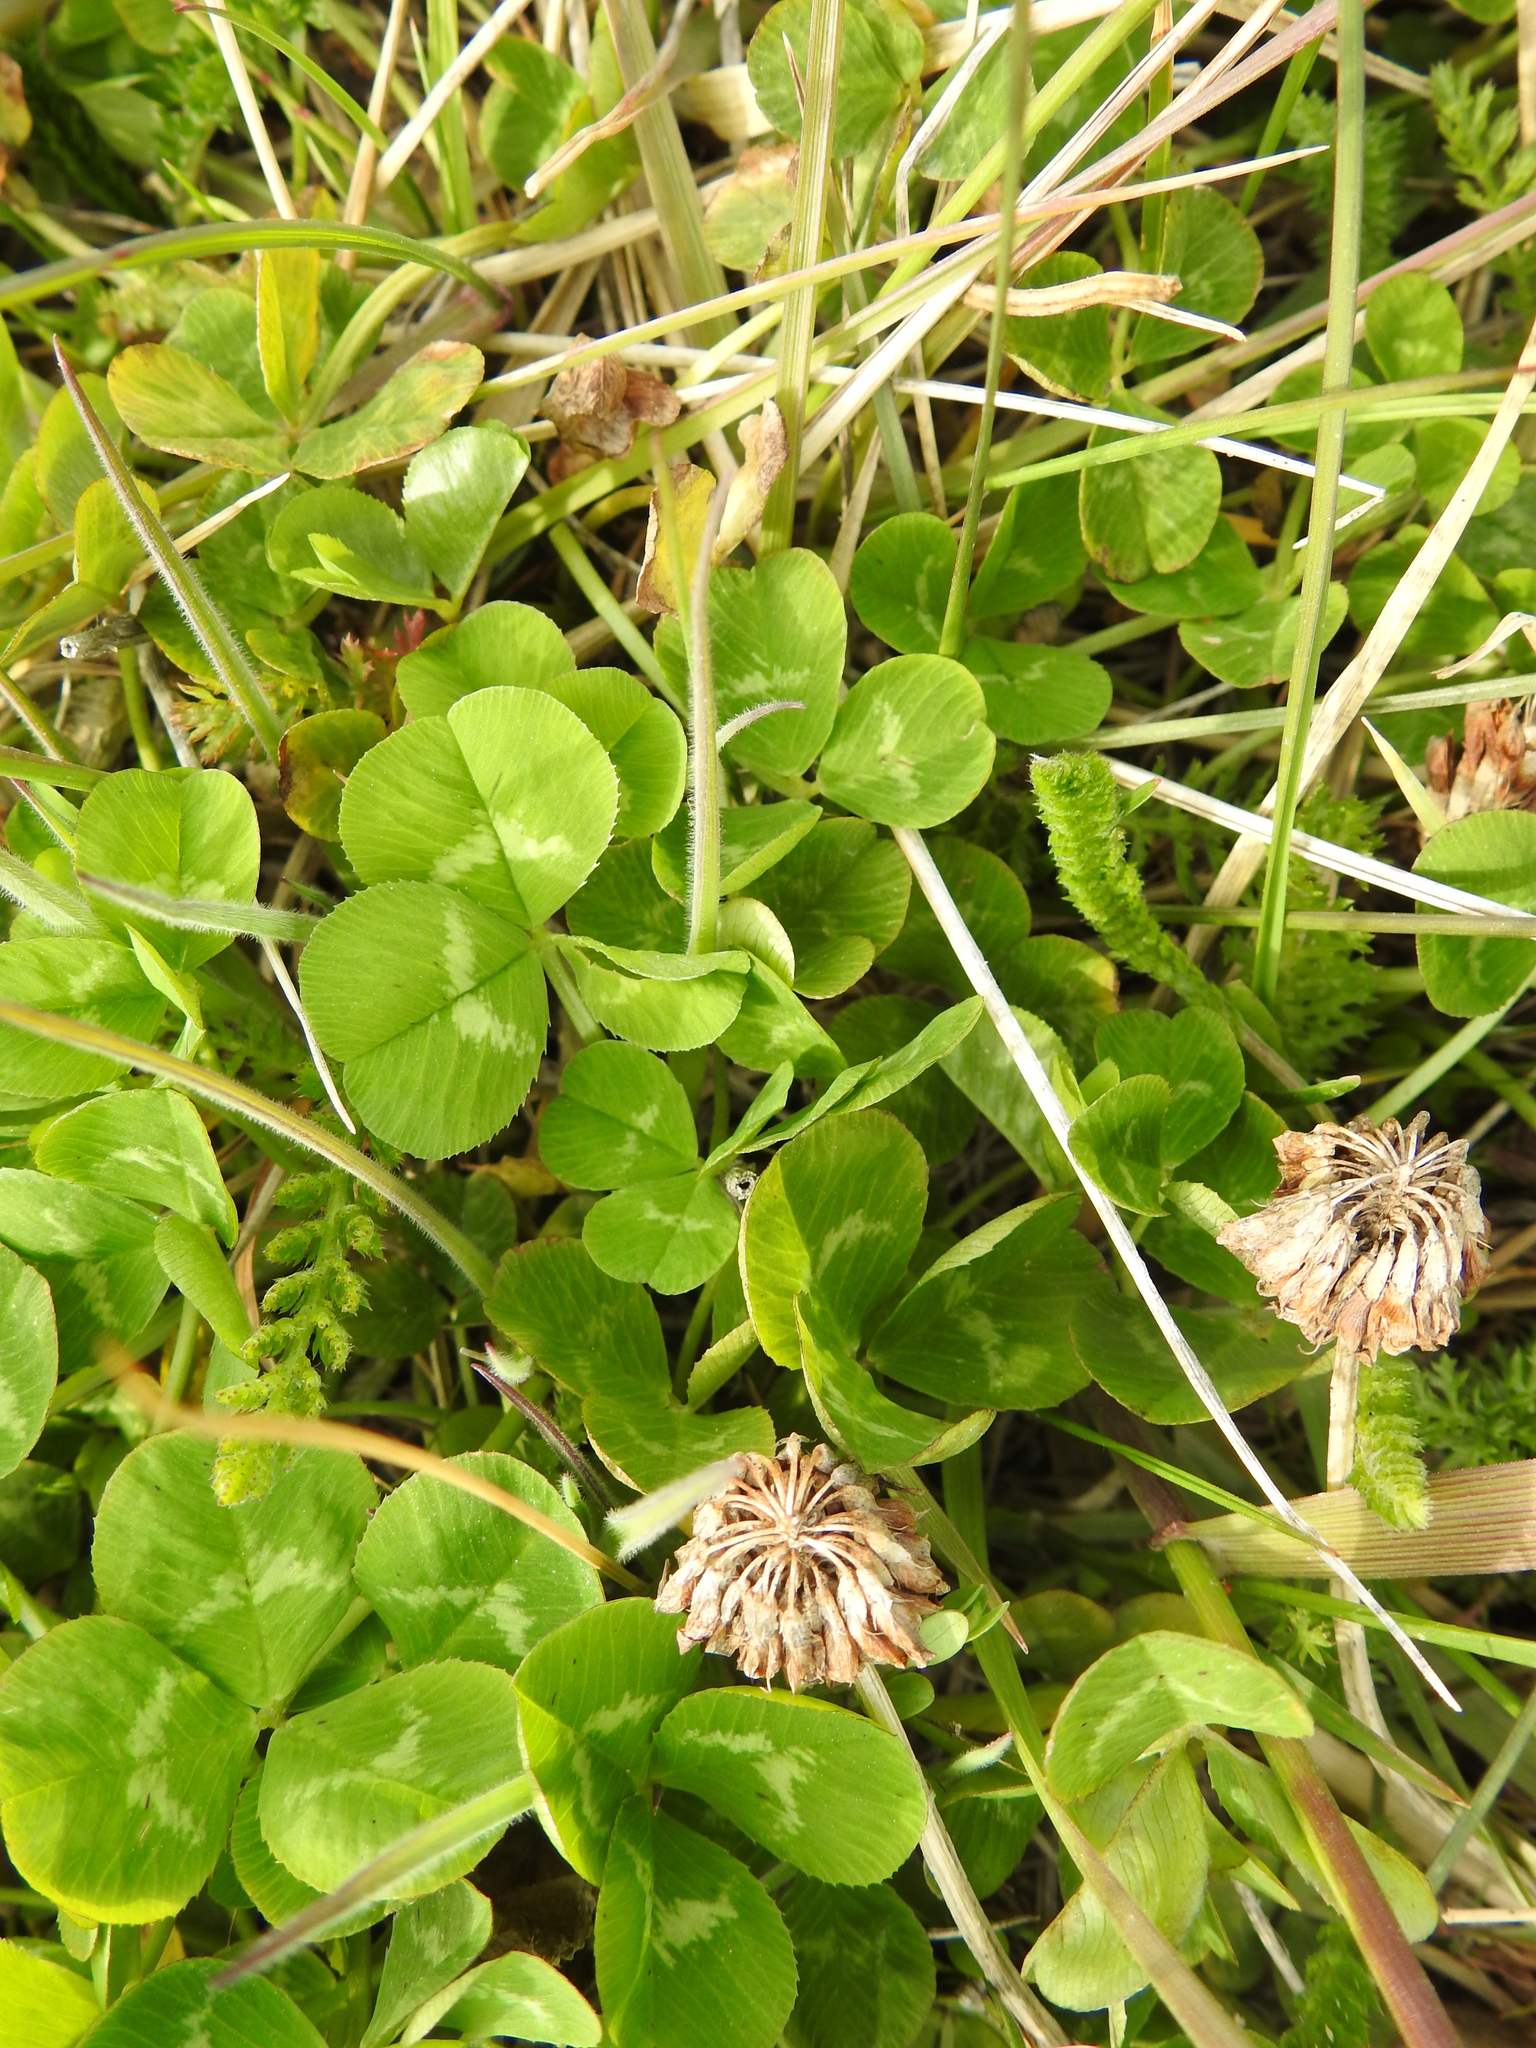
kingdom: Plantae
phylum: Tracheophyta
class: Magnoliopsida
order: Fabales
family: Fabaceae
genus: Trifolium
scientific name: Trifolium repens
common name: White clover
